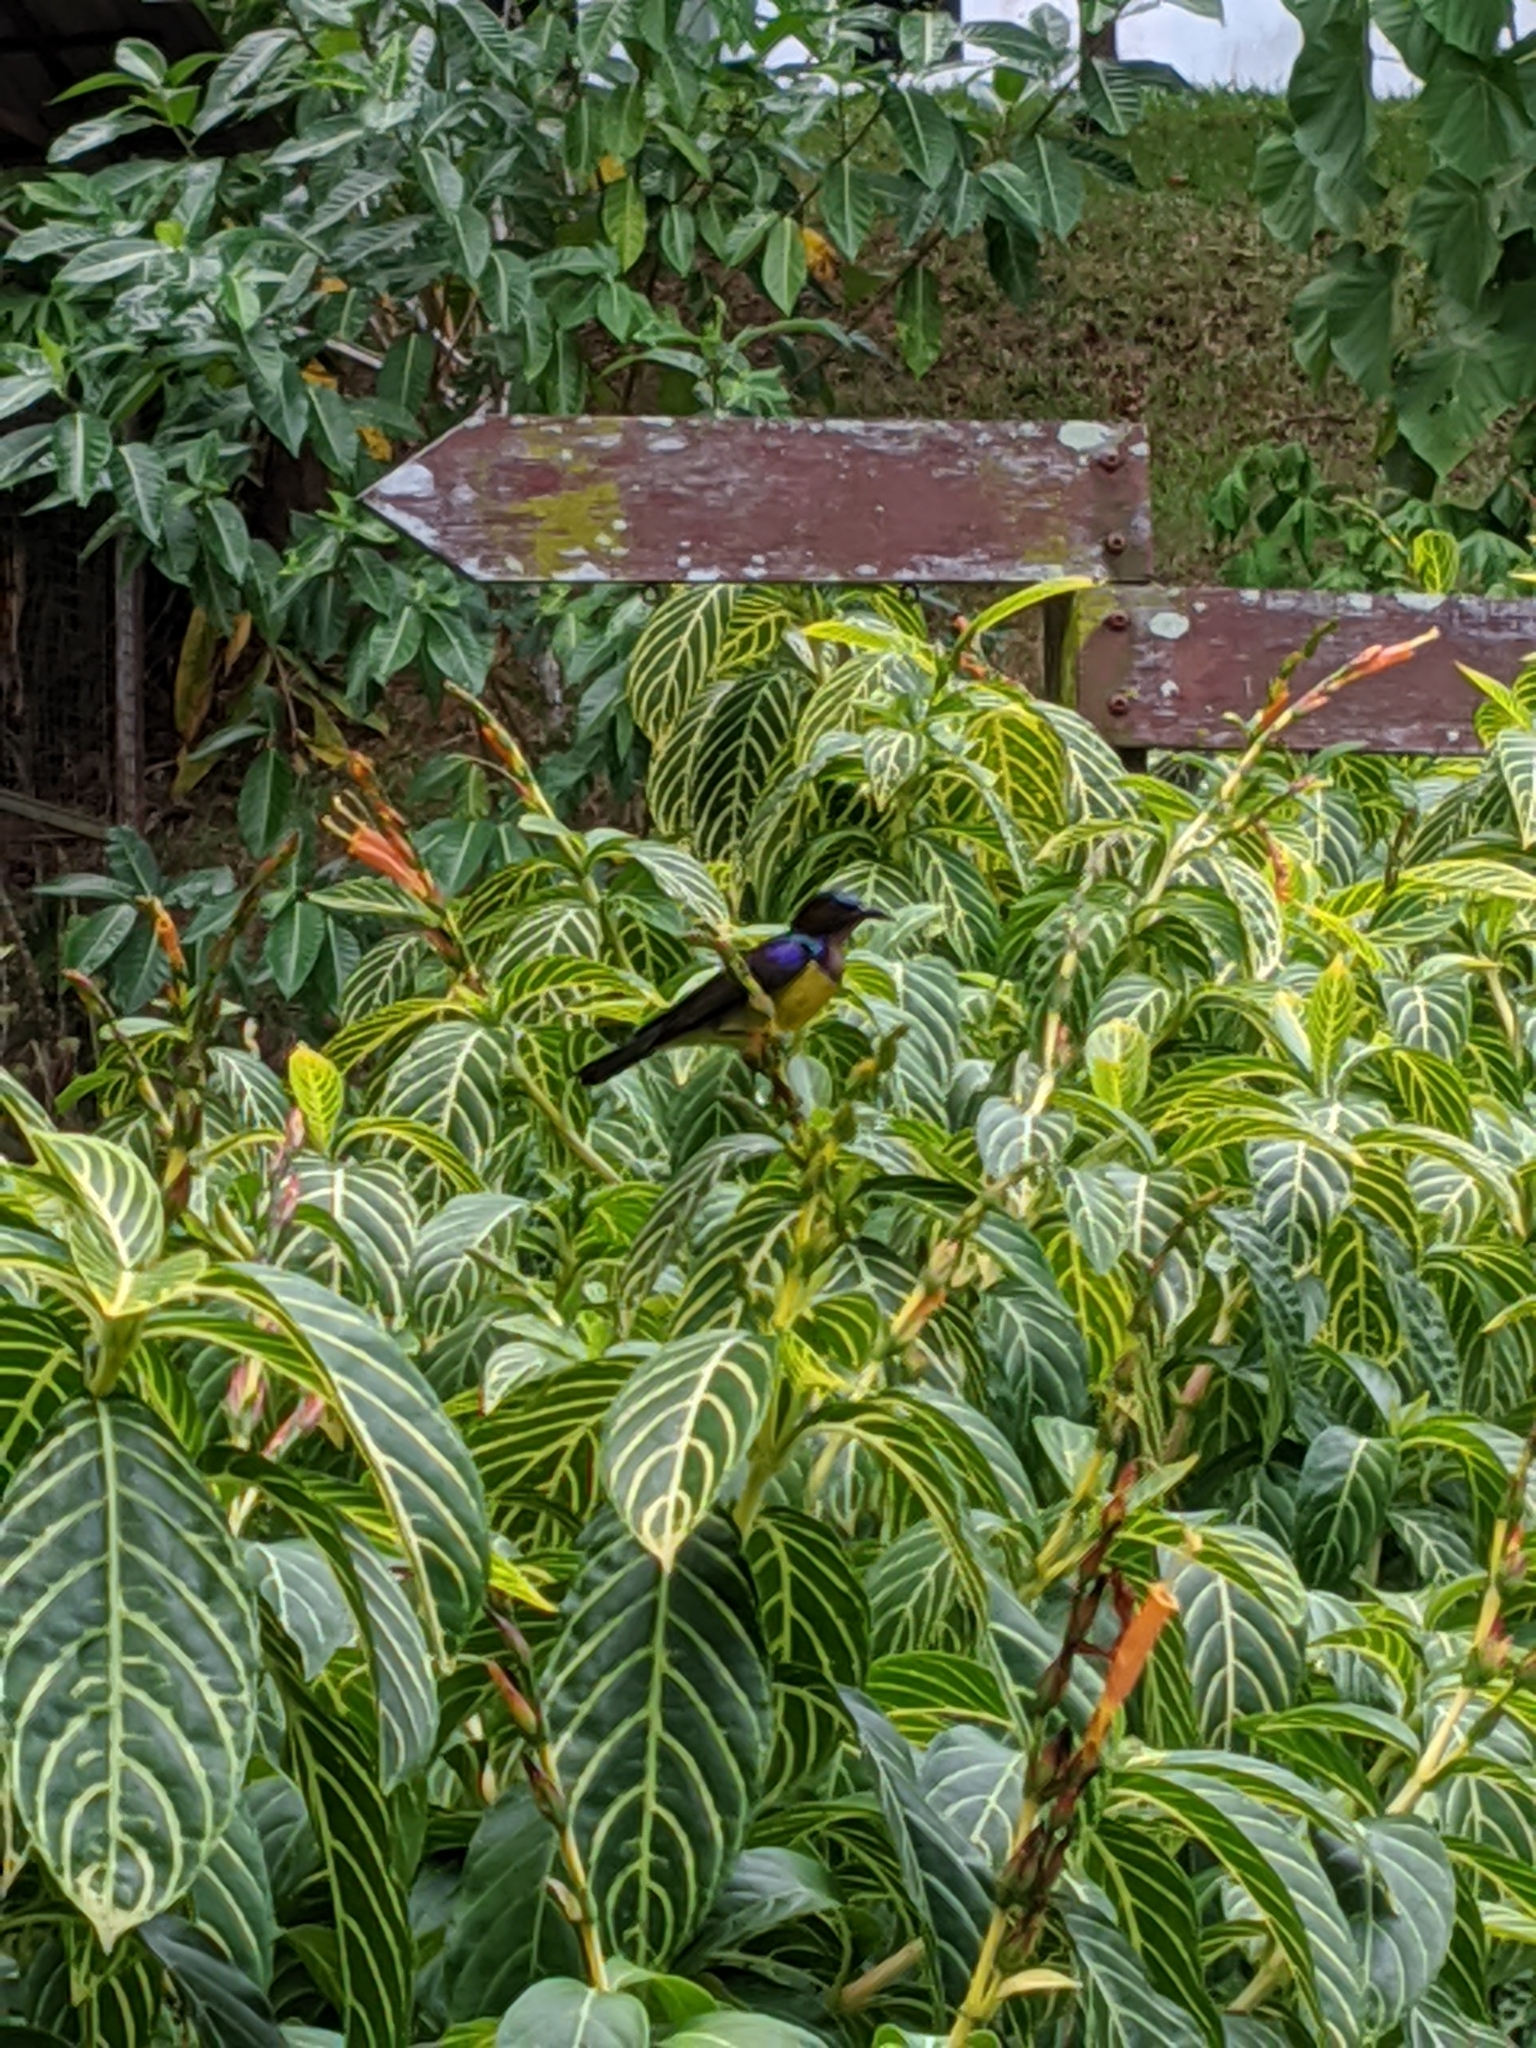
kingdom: Animalia
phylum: Chordata
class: Aves
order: Passeriformes
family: Nectariniidae
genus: Anthreptes
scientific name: Anthreptes malacensis
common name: Brown-throated sunbird
